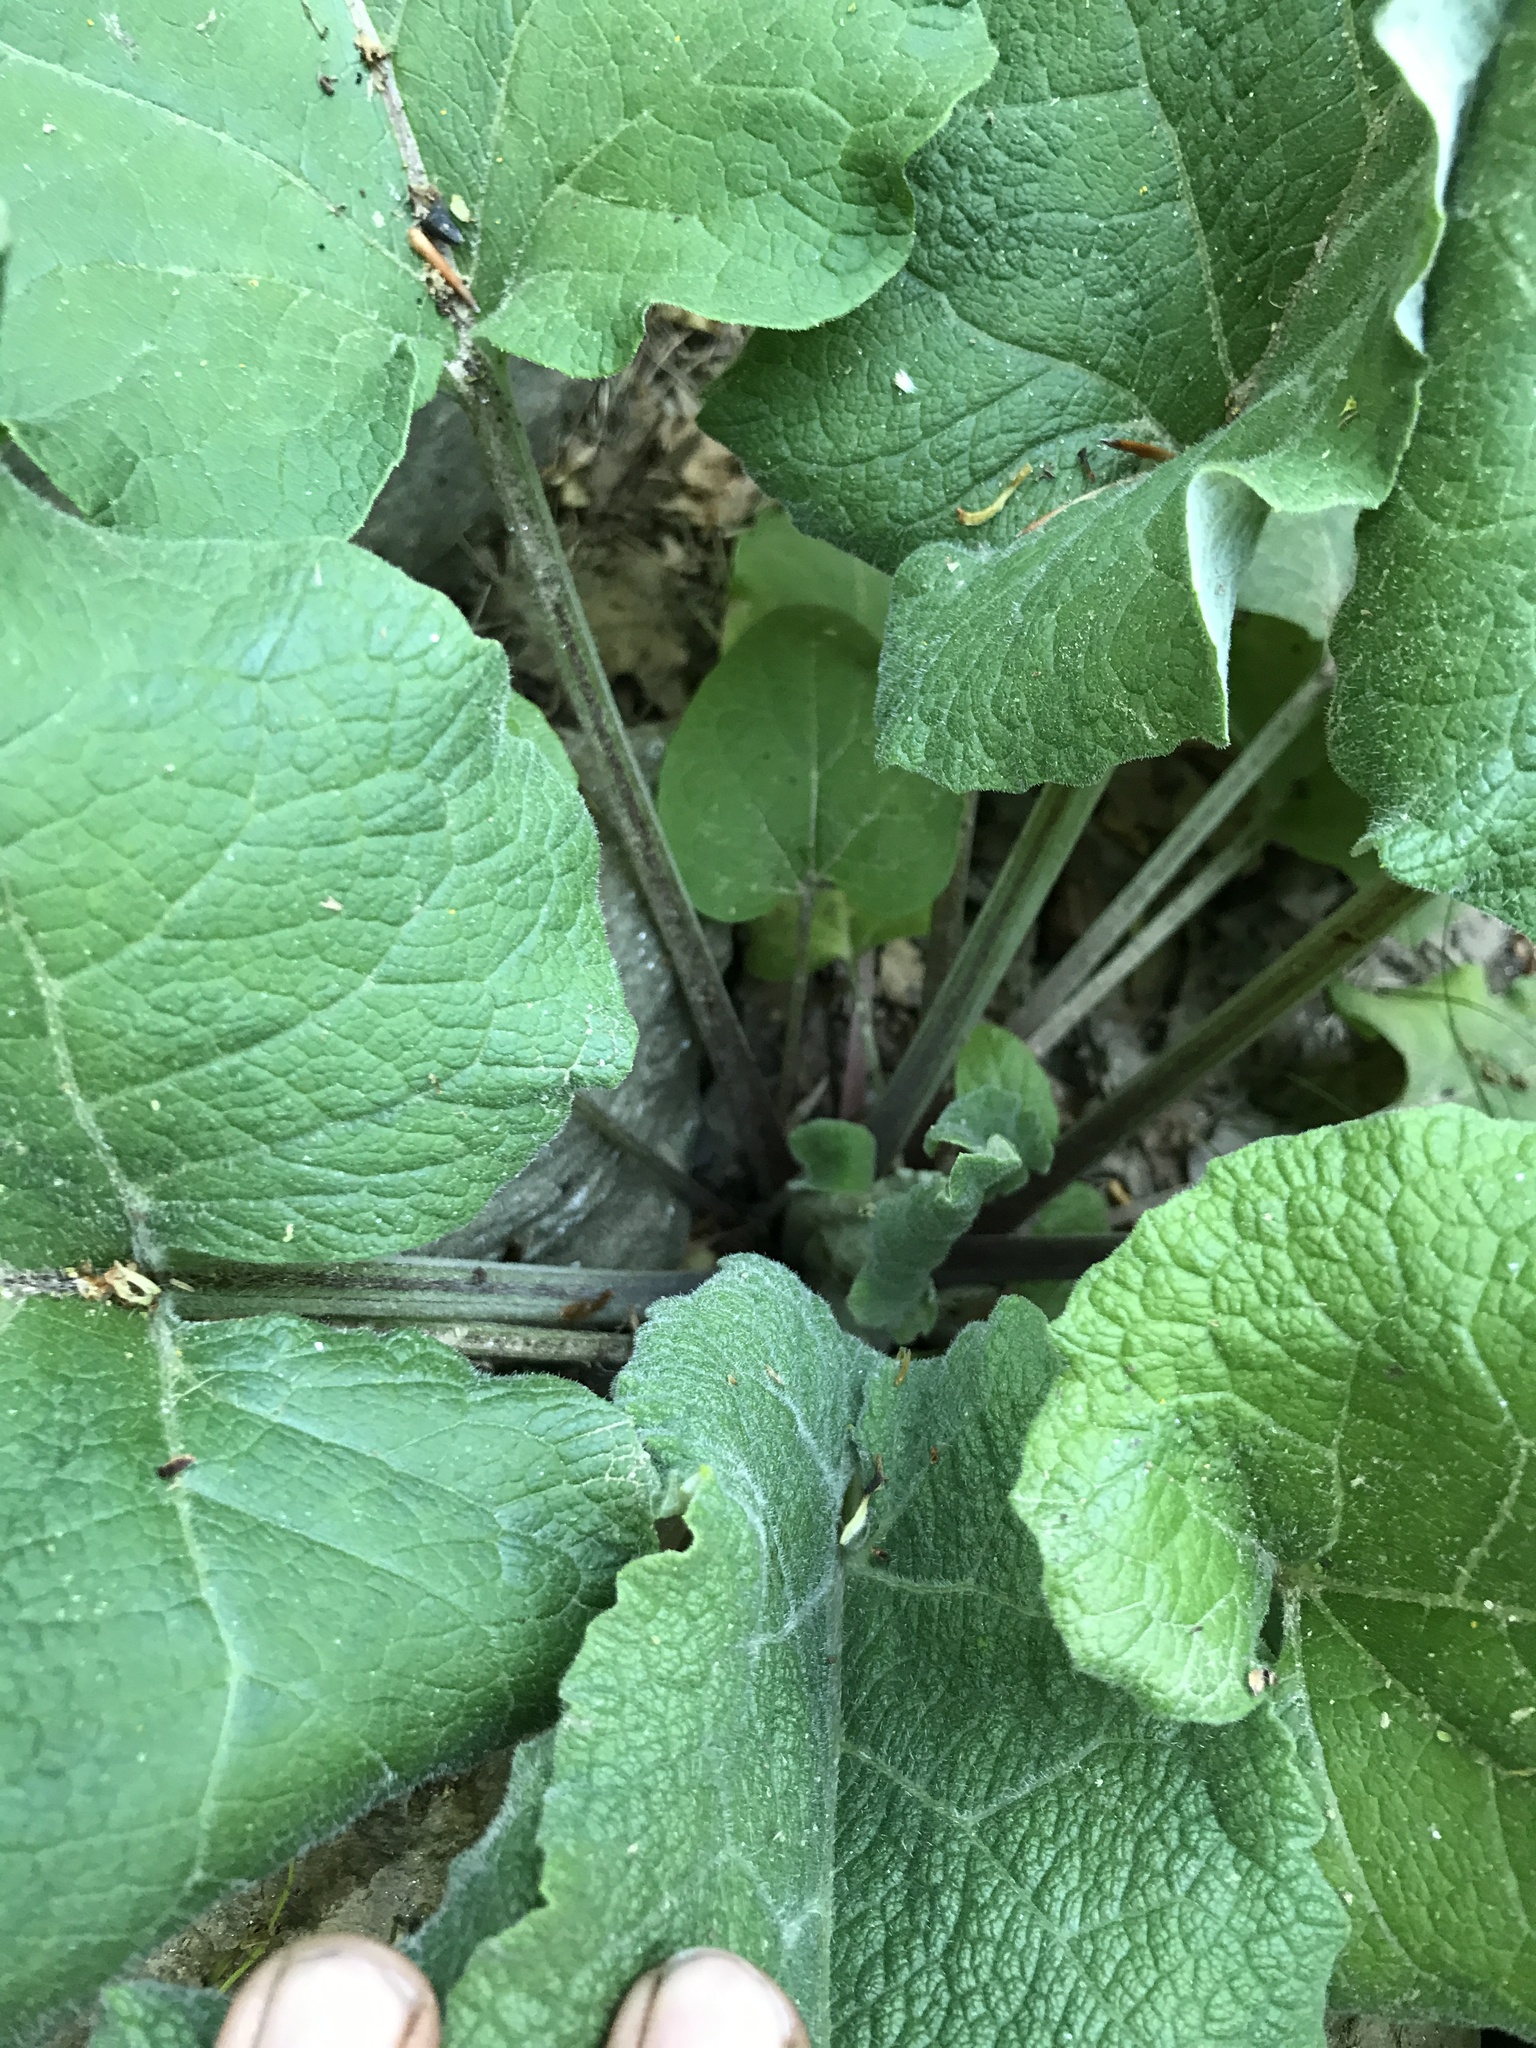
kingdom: Plantae
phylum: Tracheophyta
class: Magnoliopsida
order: Asterales
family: Asteraceae
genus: Arctium
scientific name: Arctium
